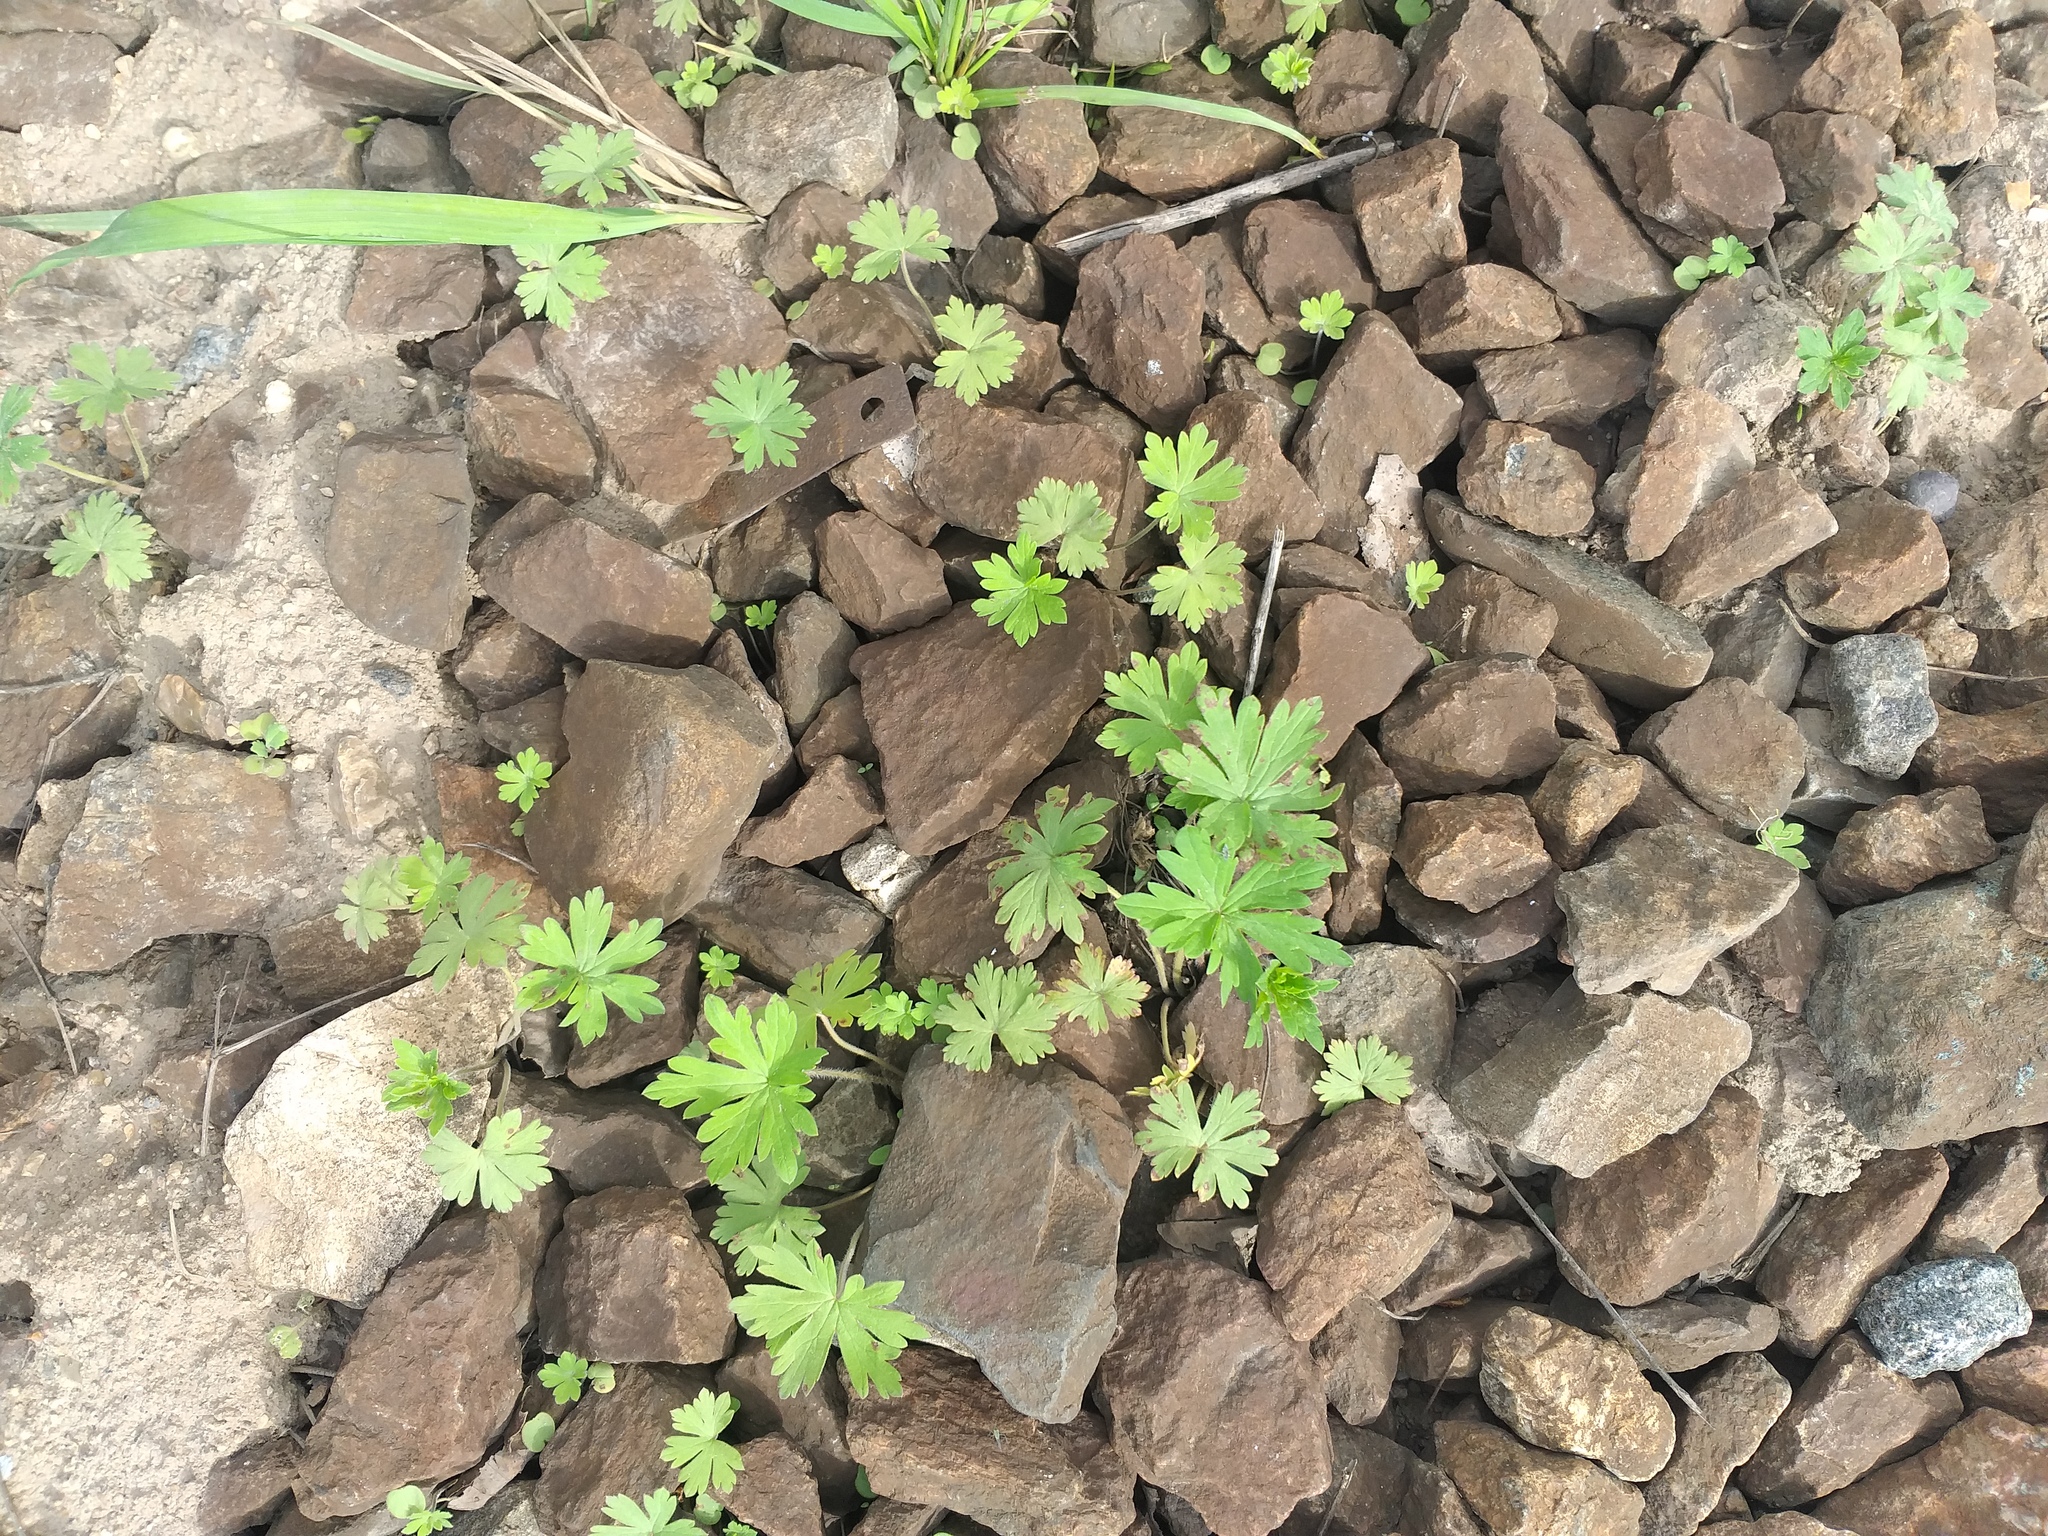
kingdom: Plantae
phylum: Tracheophyta
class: Magnoliopsida
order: Geraniales
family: Geraniaceae
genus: Geranium
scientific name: Geranium sibiricum
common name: Siberian crane's-bill
